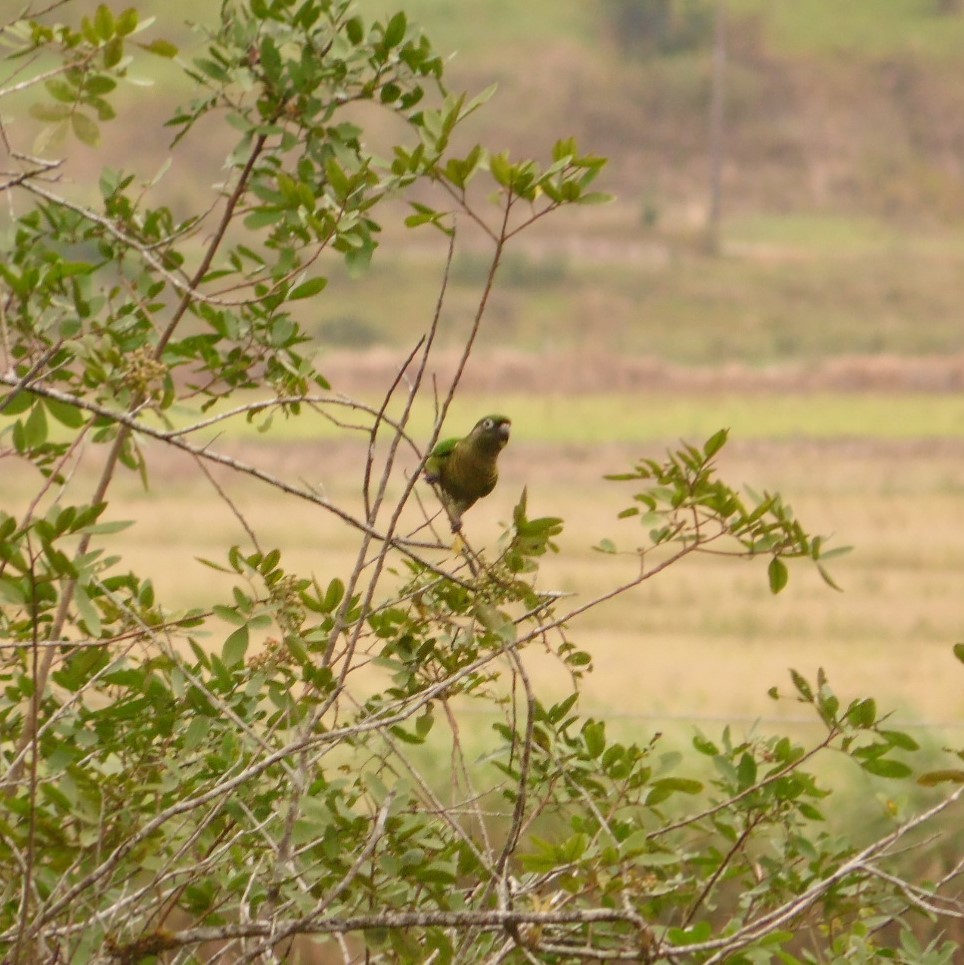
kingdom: Animalia
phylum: Chordata
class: Aves
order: Psittaciformes
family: Psittacidae
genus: Pyrrhura
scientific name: Pyrrhura frontalis
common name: Maroon-bellied parakeet
